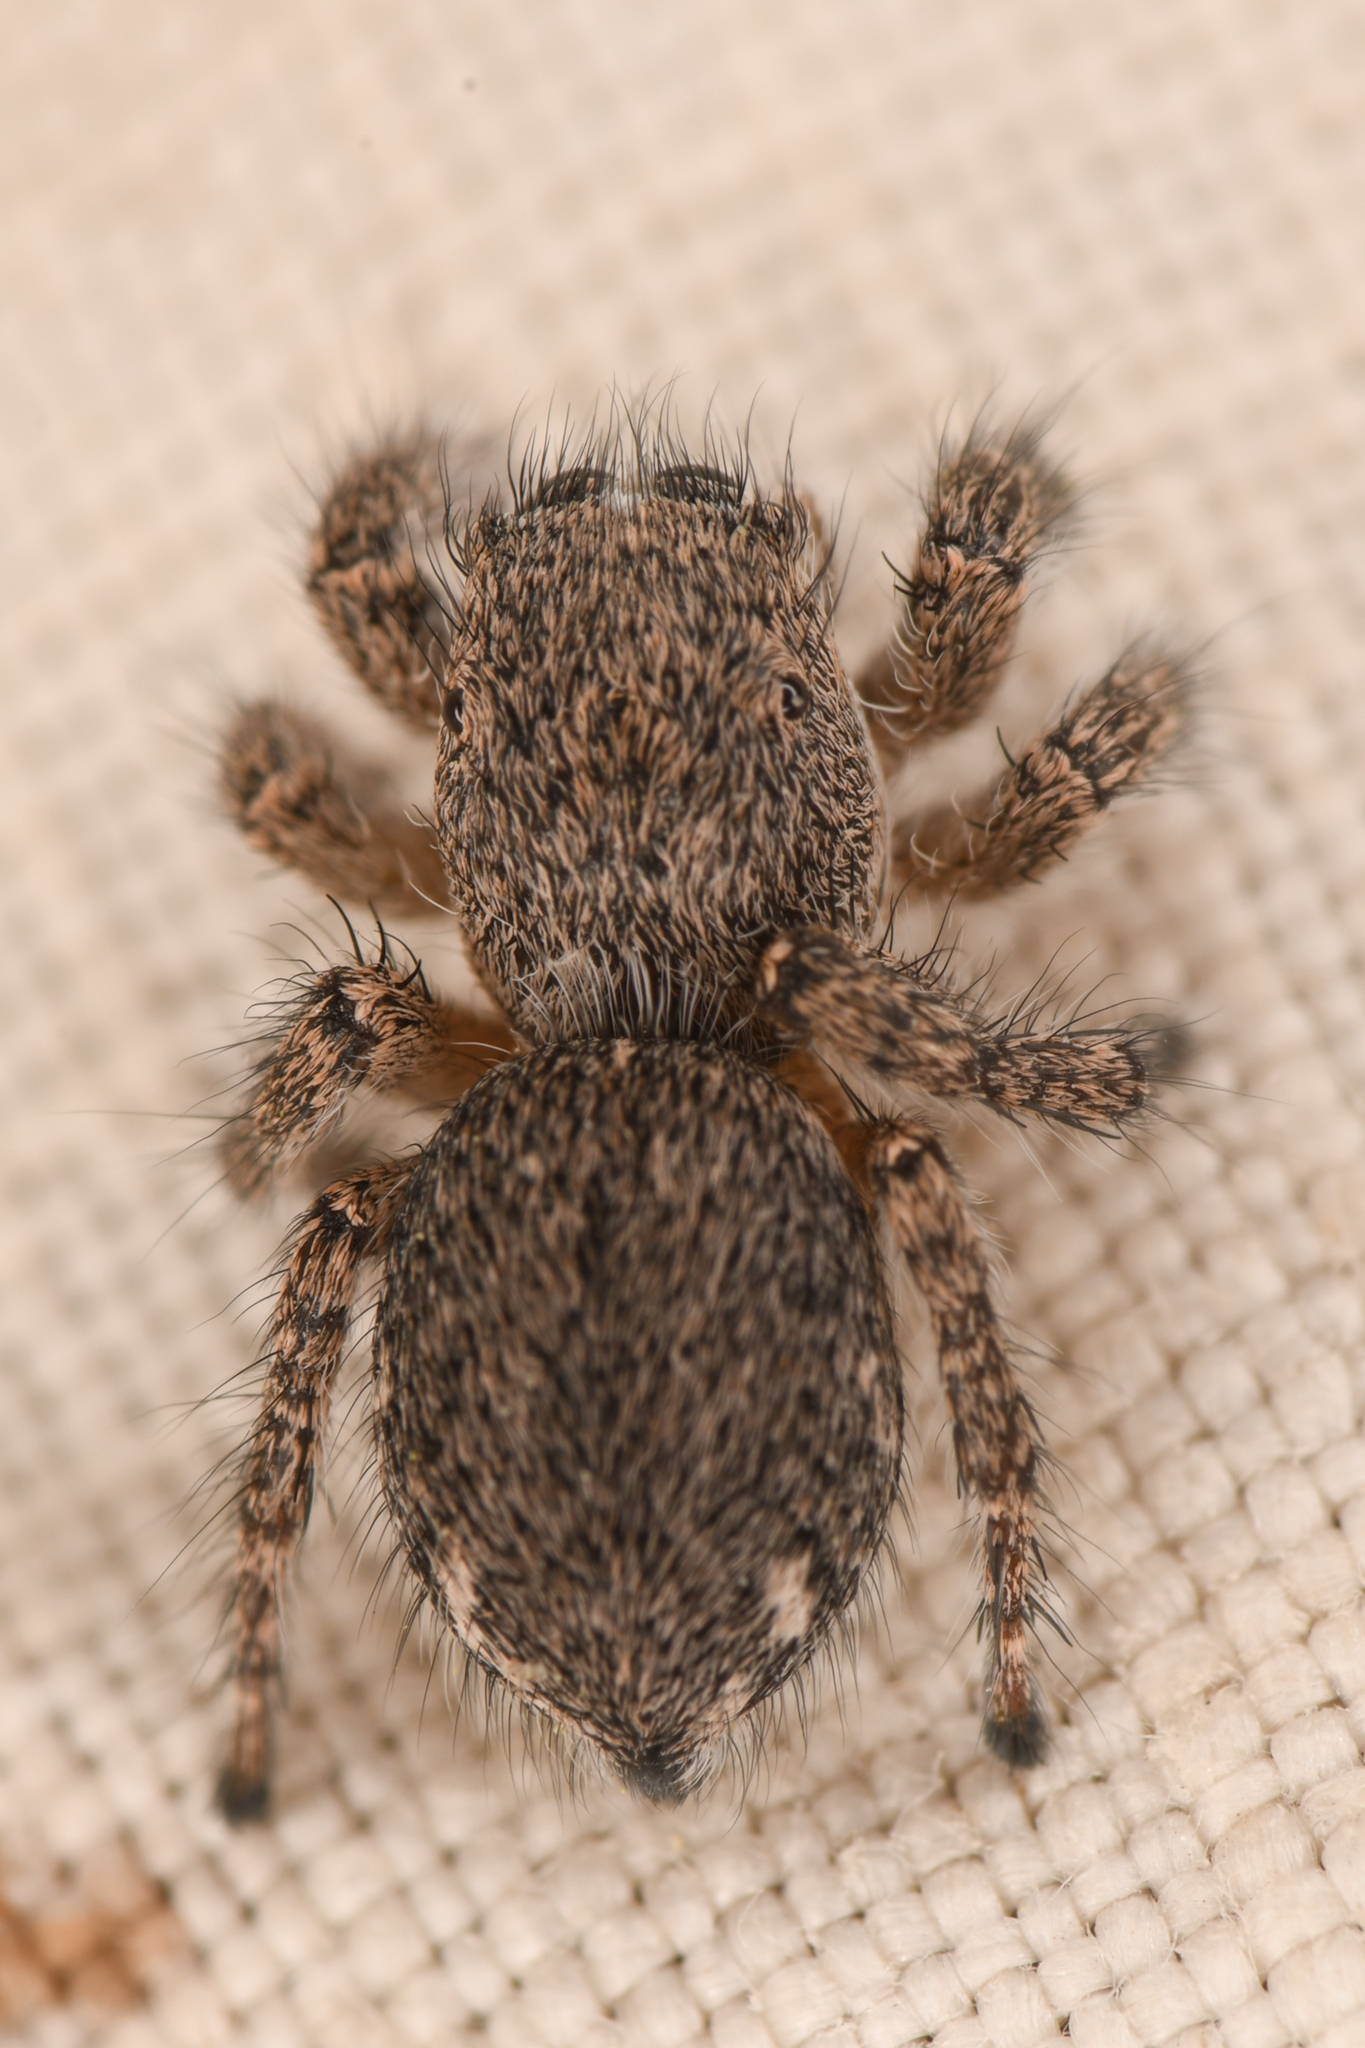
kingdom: Animalia
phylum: Arthropoda
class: Arachnida
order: Araneae
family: Salticidae
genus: Habronattus
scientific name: Habronattus hirsutus
